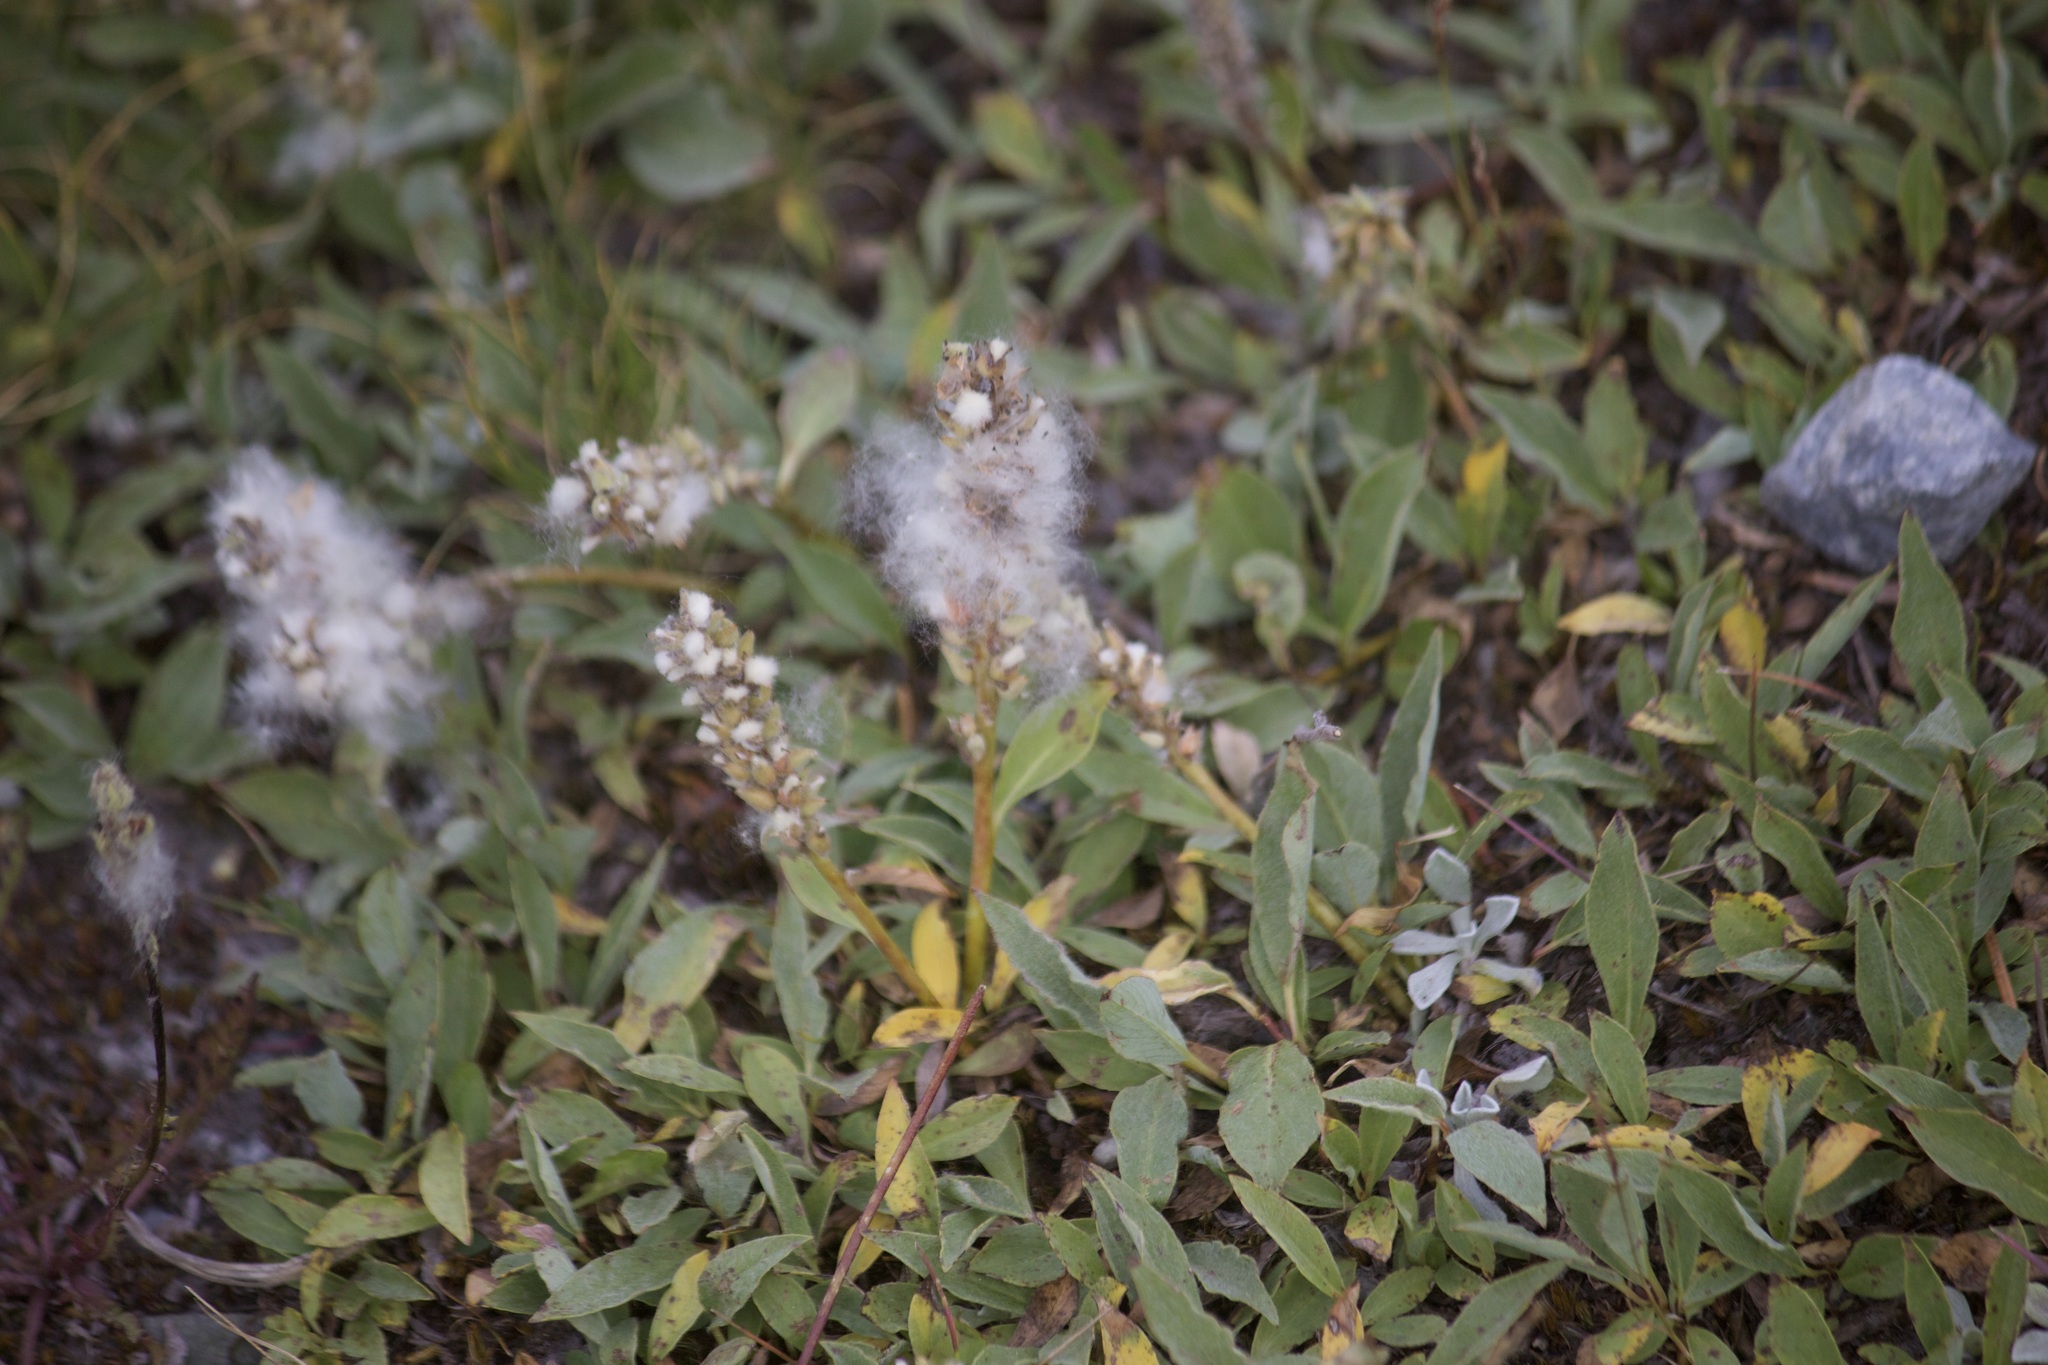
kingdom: Plantae
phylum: Tracheophyta
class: Magnoliopsida
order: Malpighiales
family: Salicaceae
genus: Salix
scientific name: Salix petrophila
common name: Rocky mountain willow
